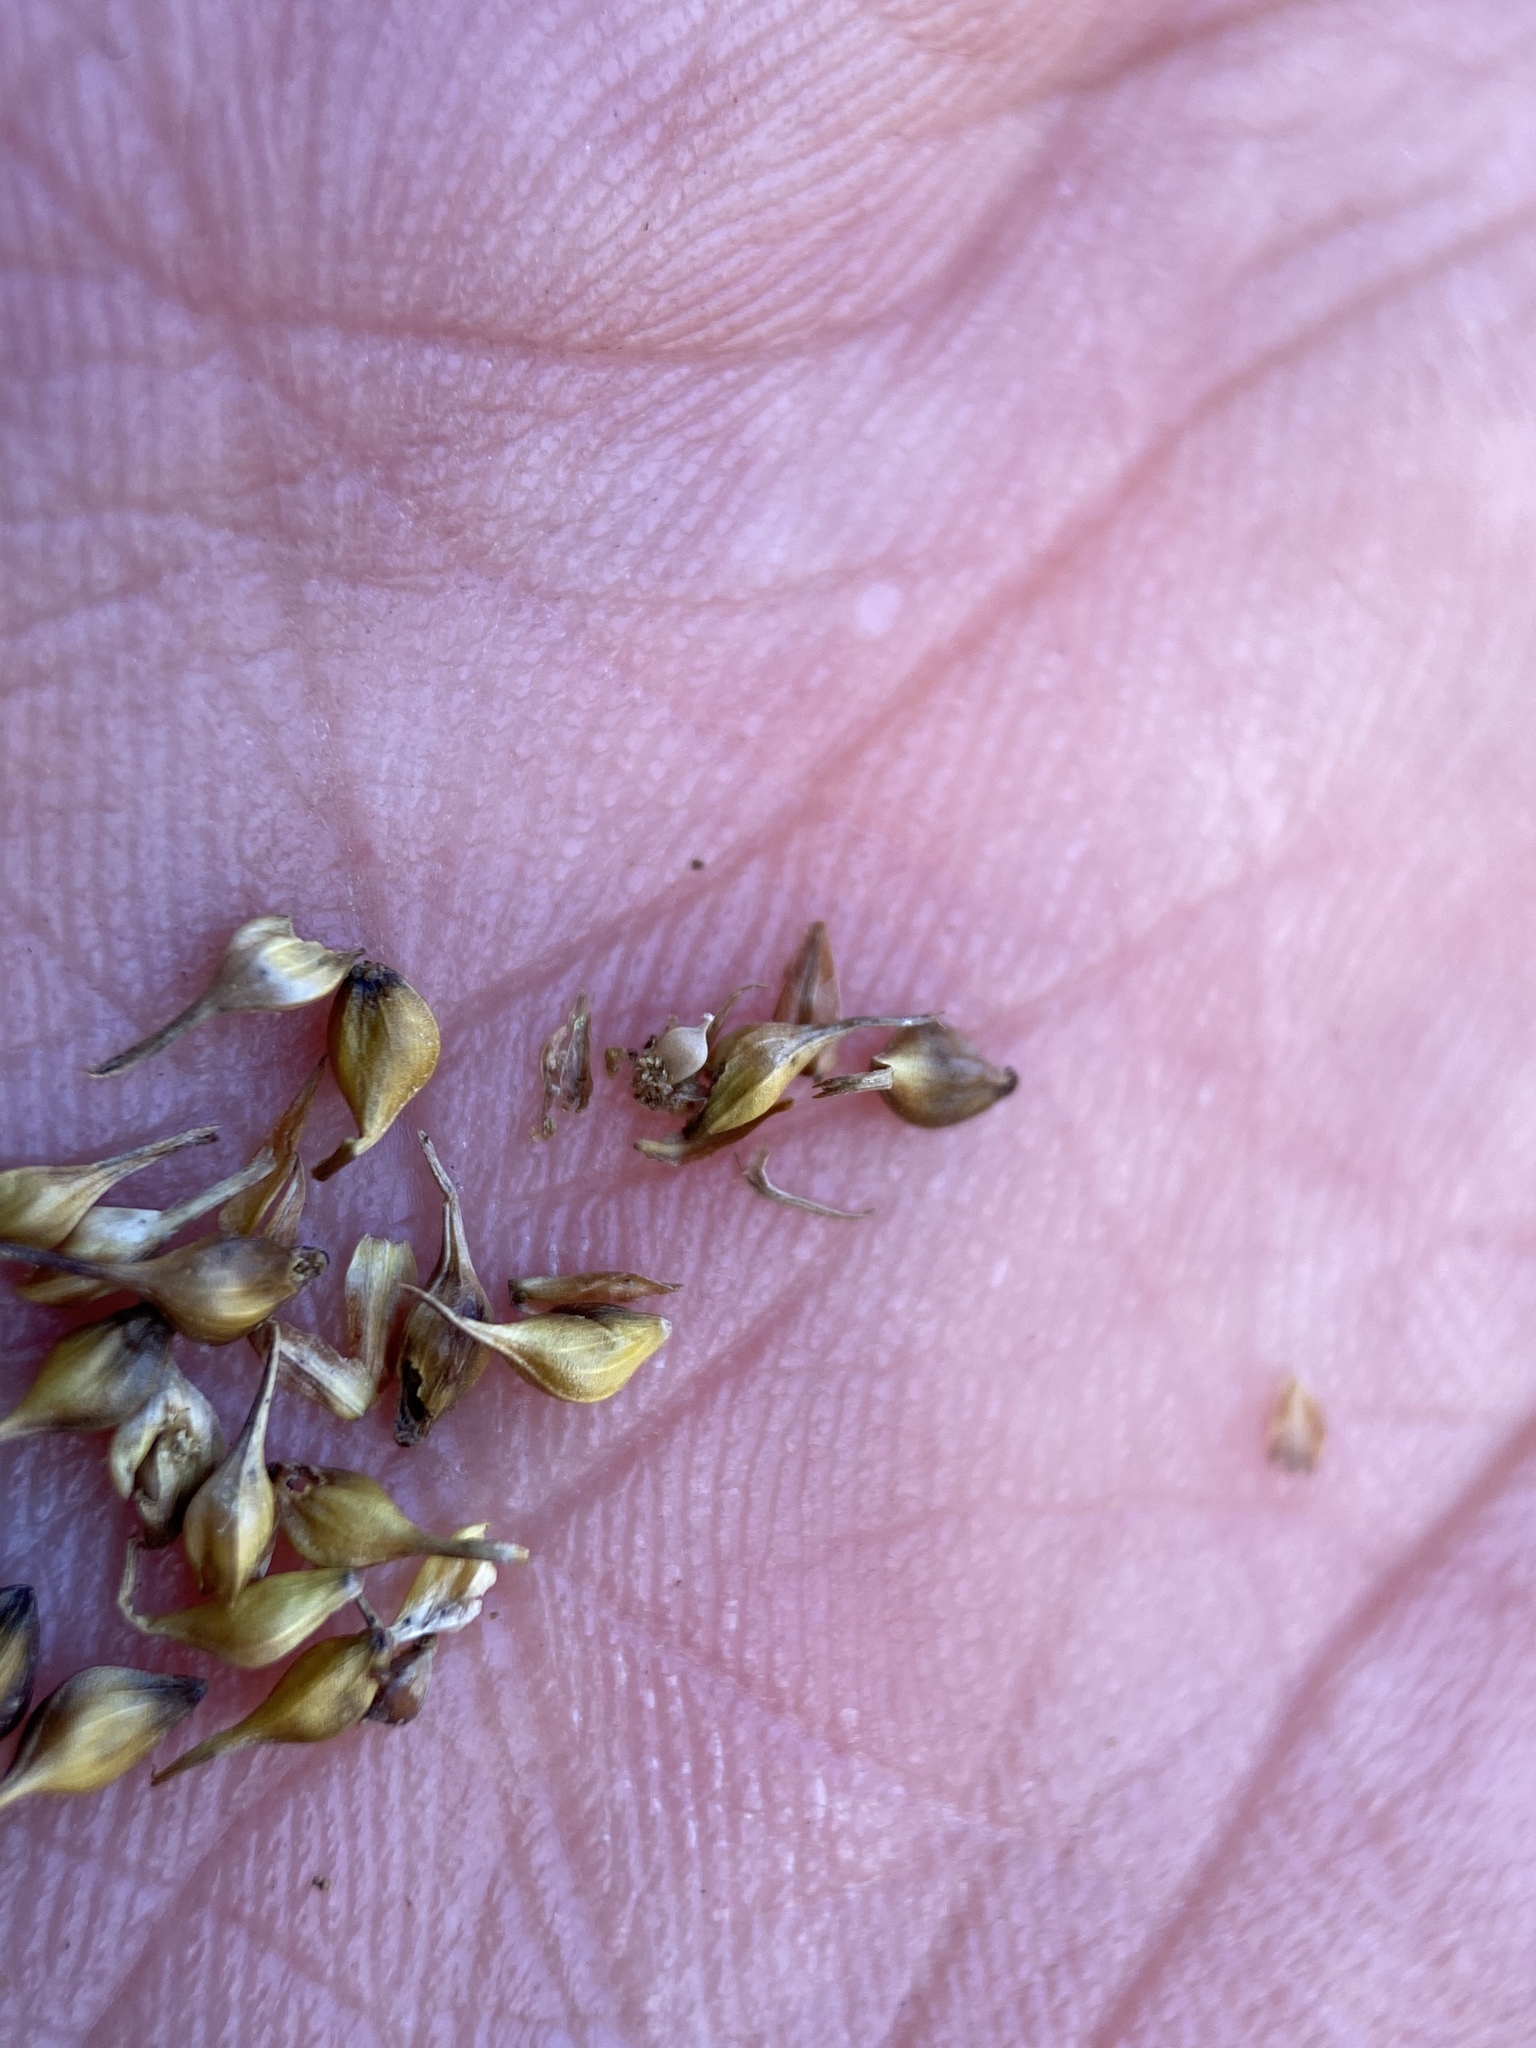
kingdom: Plantae
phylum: Tracheophyta
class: Liliopsida
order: Poales
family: Cyperaceae
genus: Carex
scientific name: Carex cryptolepis
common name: Northeastern sedge
